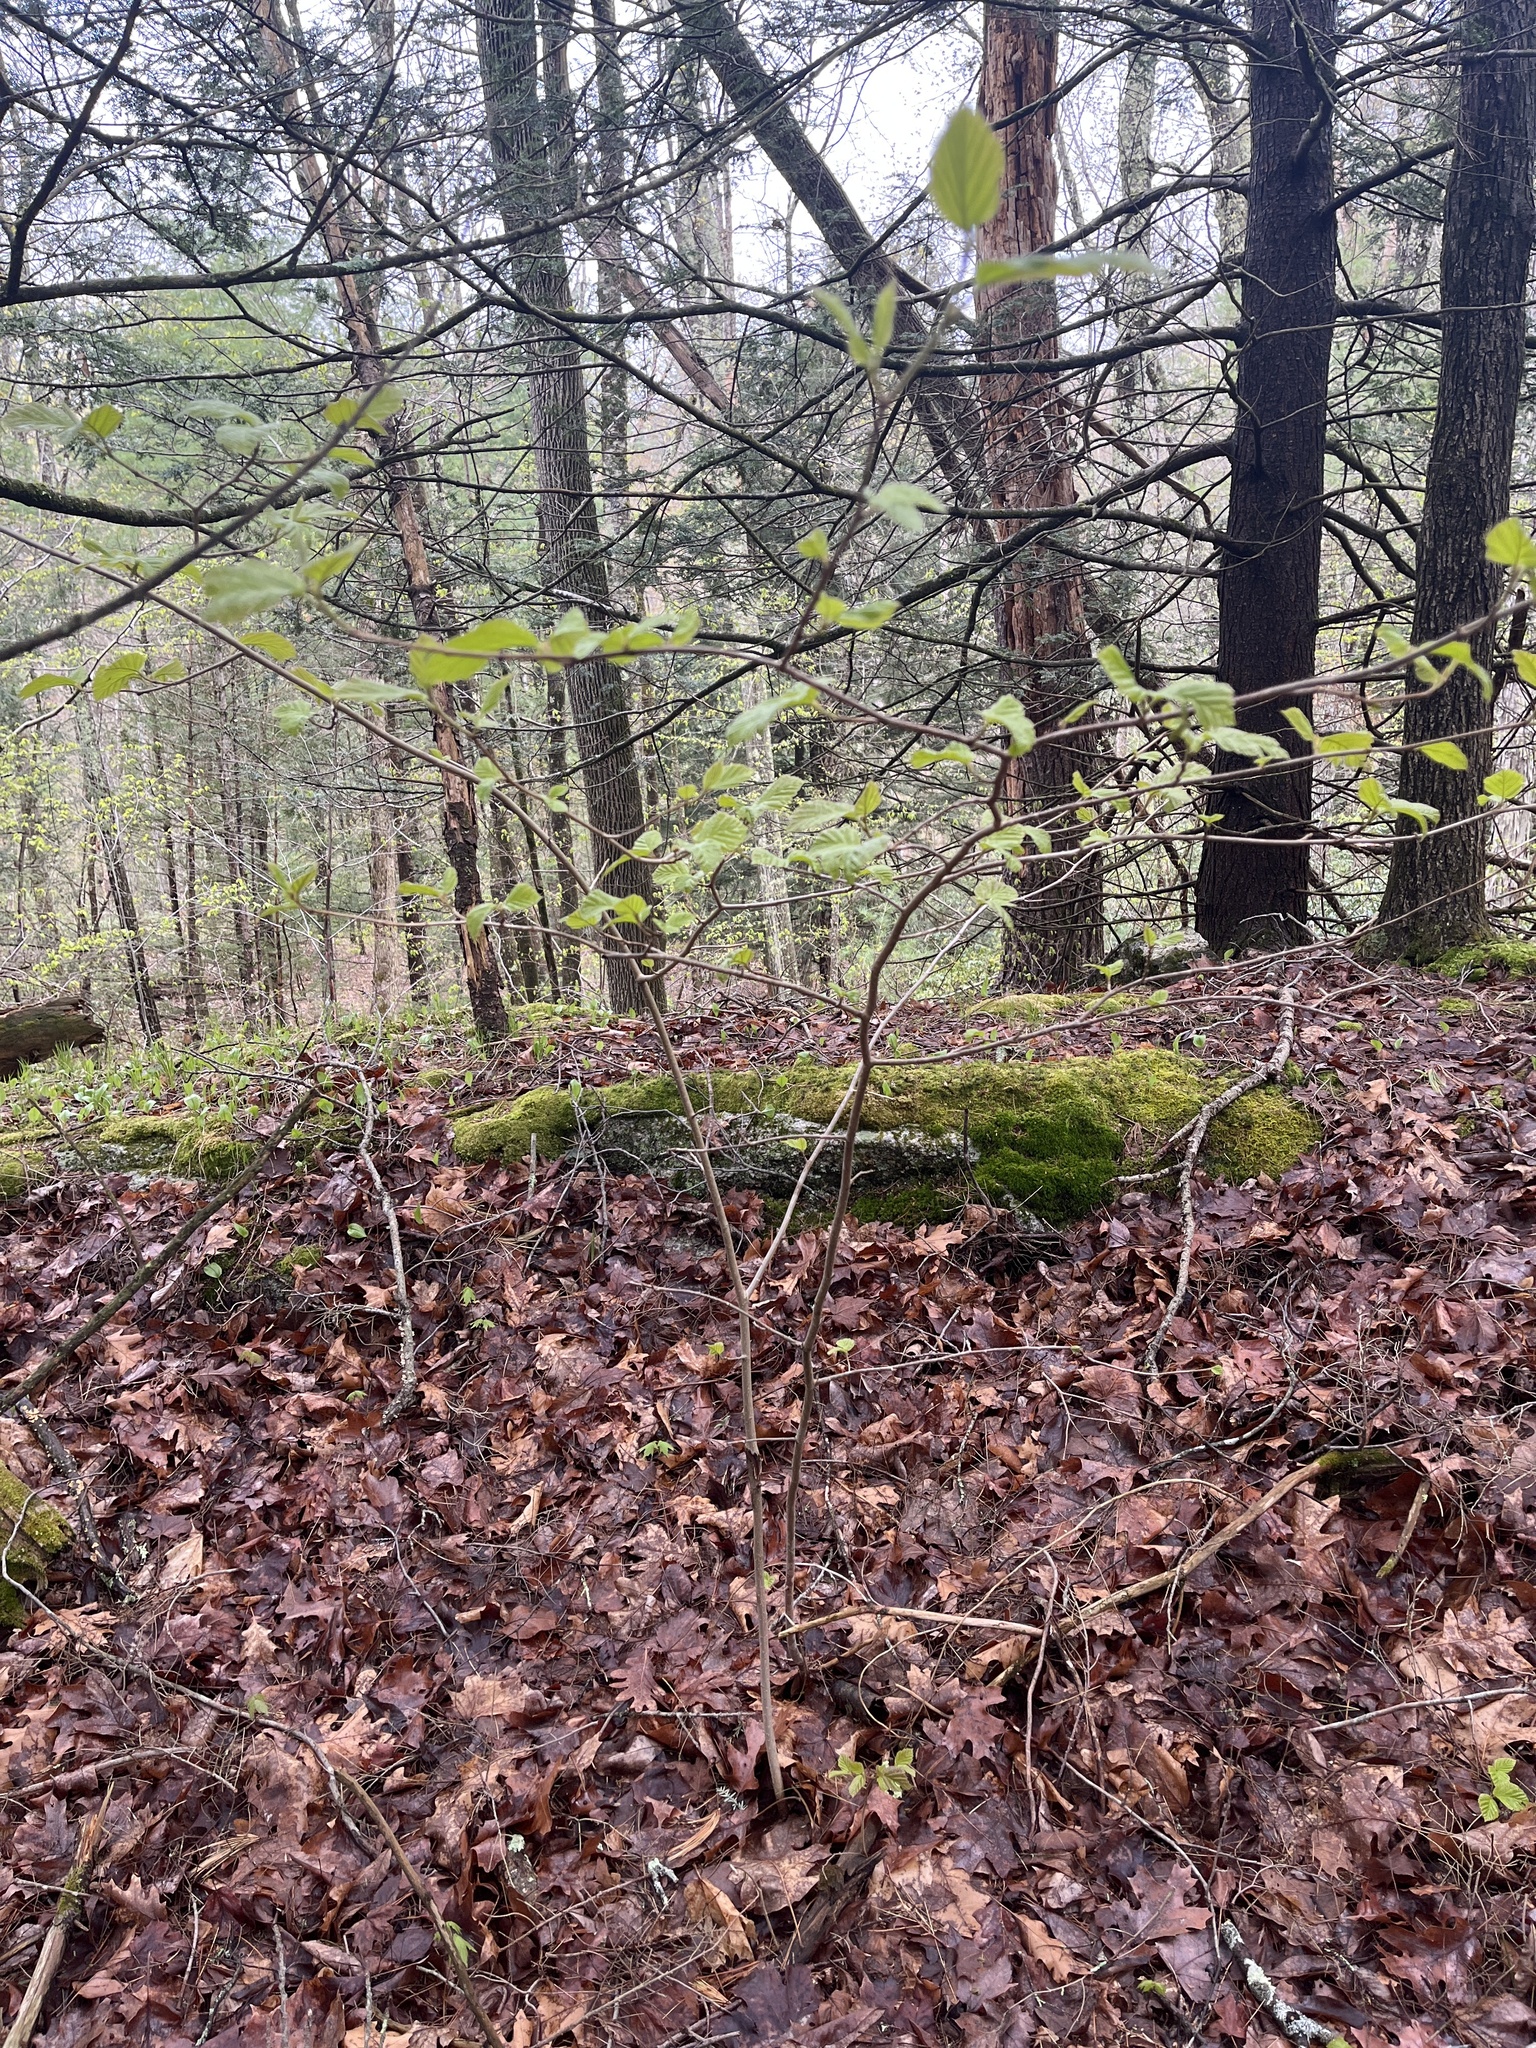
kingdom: Plantae
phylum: Tracheophyta
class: Magnoliopsida
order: Saxifragales
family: Hamamelidaceae
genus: Hamamelis
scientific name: Hamamelis virginiana
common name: Witch-hazel
